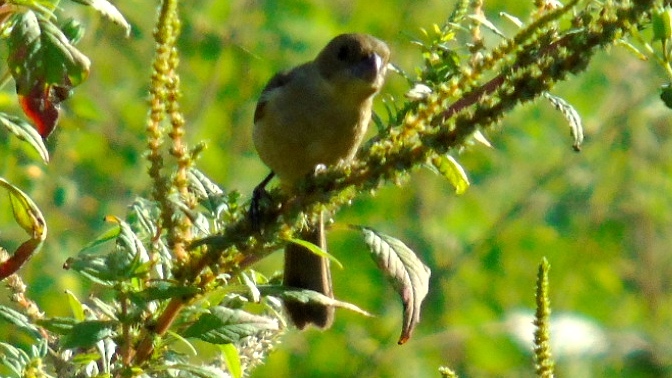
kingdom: Animalia
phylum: Chordata
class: Aves
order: Passeriformes
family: Thraupidae
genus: Sporophila
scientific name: Sporophila torqueola
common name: White-collared seedeater
